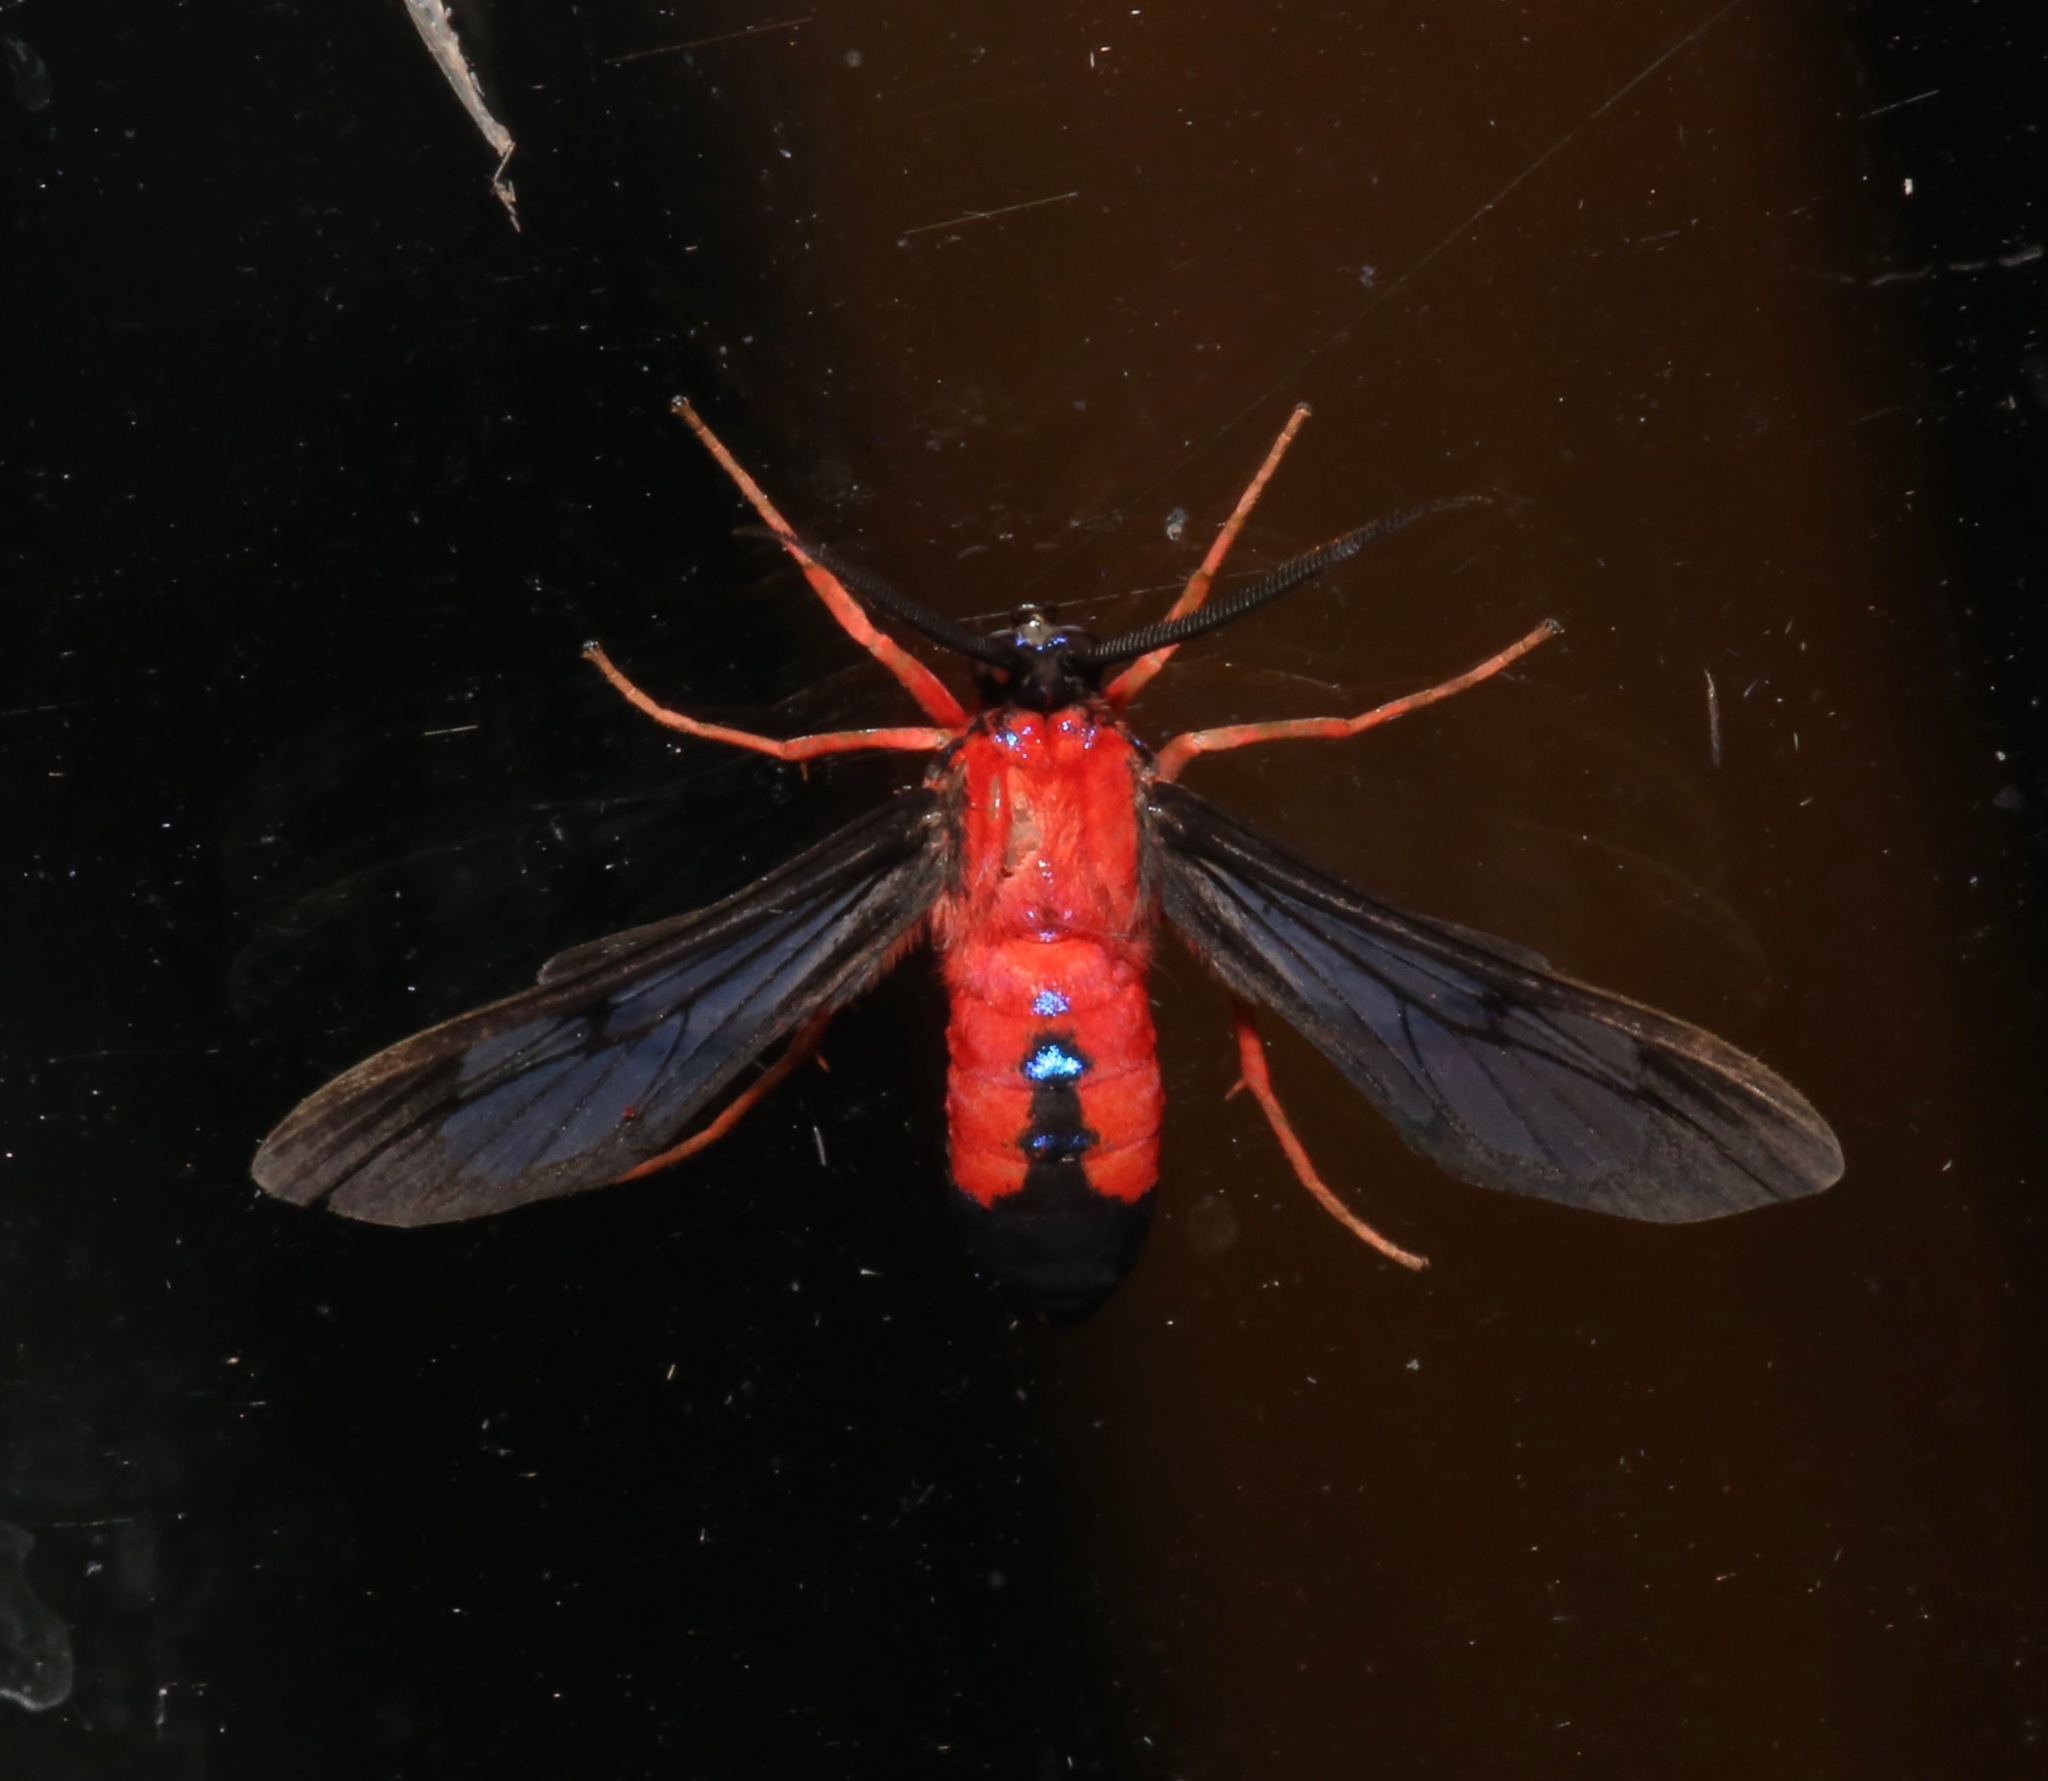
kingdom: Animalia
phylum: Arthropoda
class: Insecta
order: Lepidoptera
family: Erebidae
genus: Cosmosoma
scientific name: Cosmosoma myrodora
